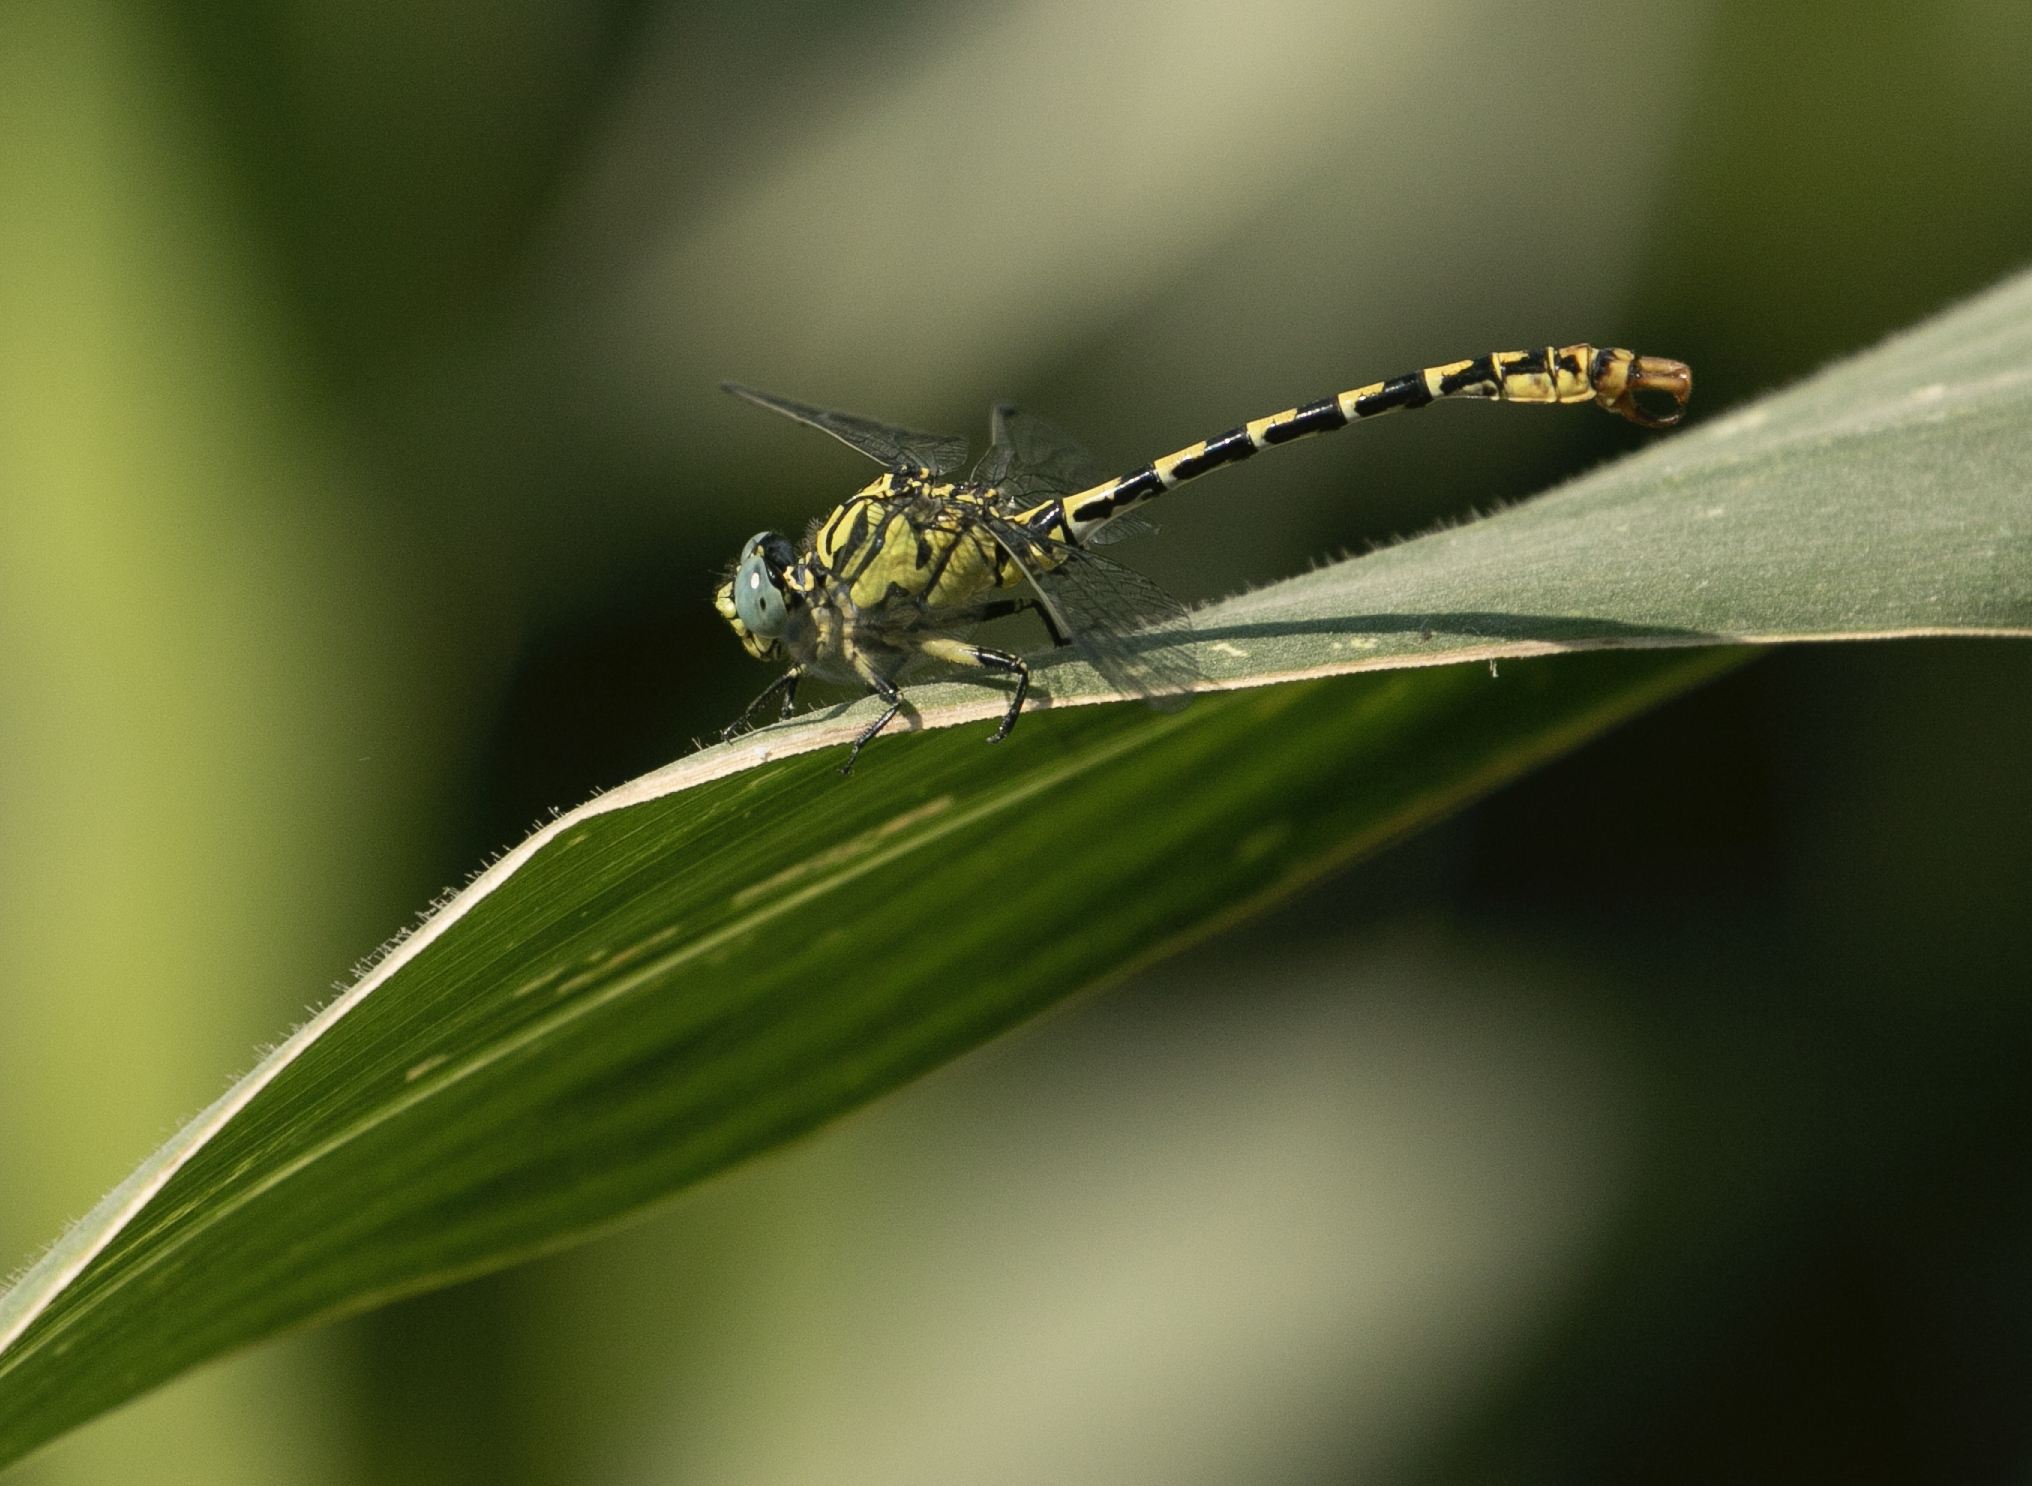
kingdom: Animalia
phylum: Arthropoda
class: Insecta
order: Odonata
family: Gomphidae
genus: Onychogomphus
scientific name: Onychogomphus forcipatus
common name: Small pincertail
